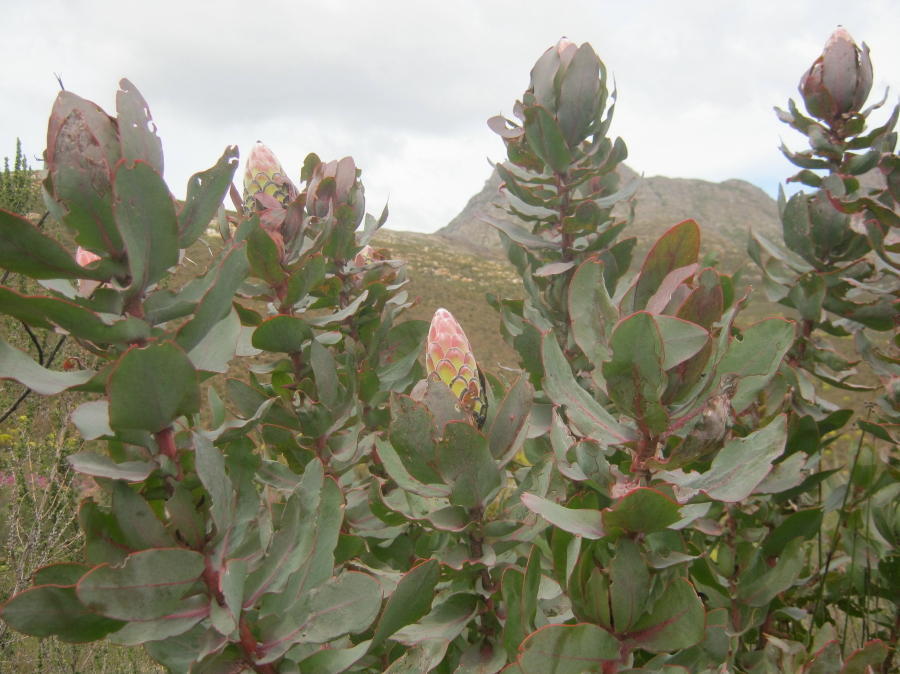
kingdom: Plantae
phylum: Tracheophyta
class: Magnoliopsida
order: Proteales
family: Proteaceae
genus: Protea
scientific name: Protea eximia
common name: Broad-leaved sugarbush
